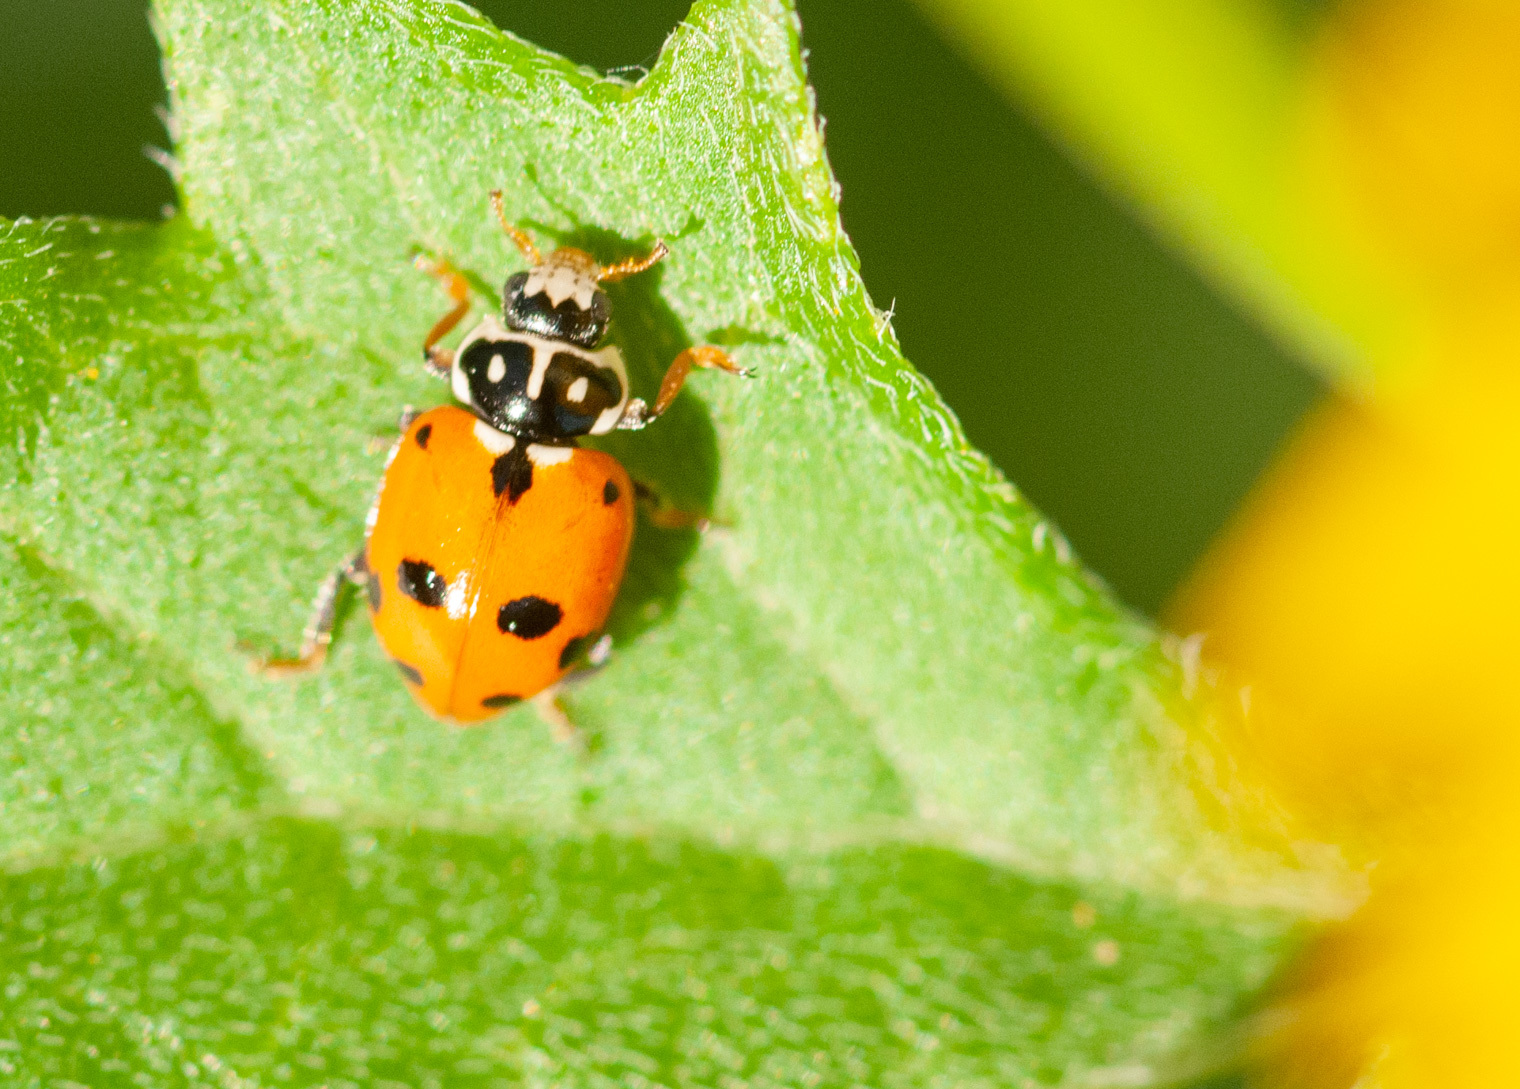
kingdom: Animalia
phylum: Arthropoda
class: Insecta
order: Coleoptera
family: Coccinellidae
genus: Hippodamia
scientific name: Hippodamia variegata
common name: Ladybird beetle
